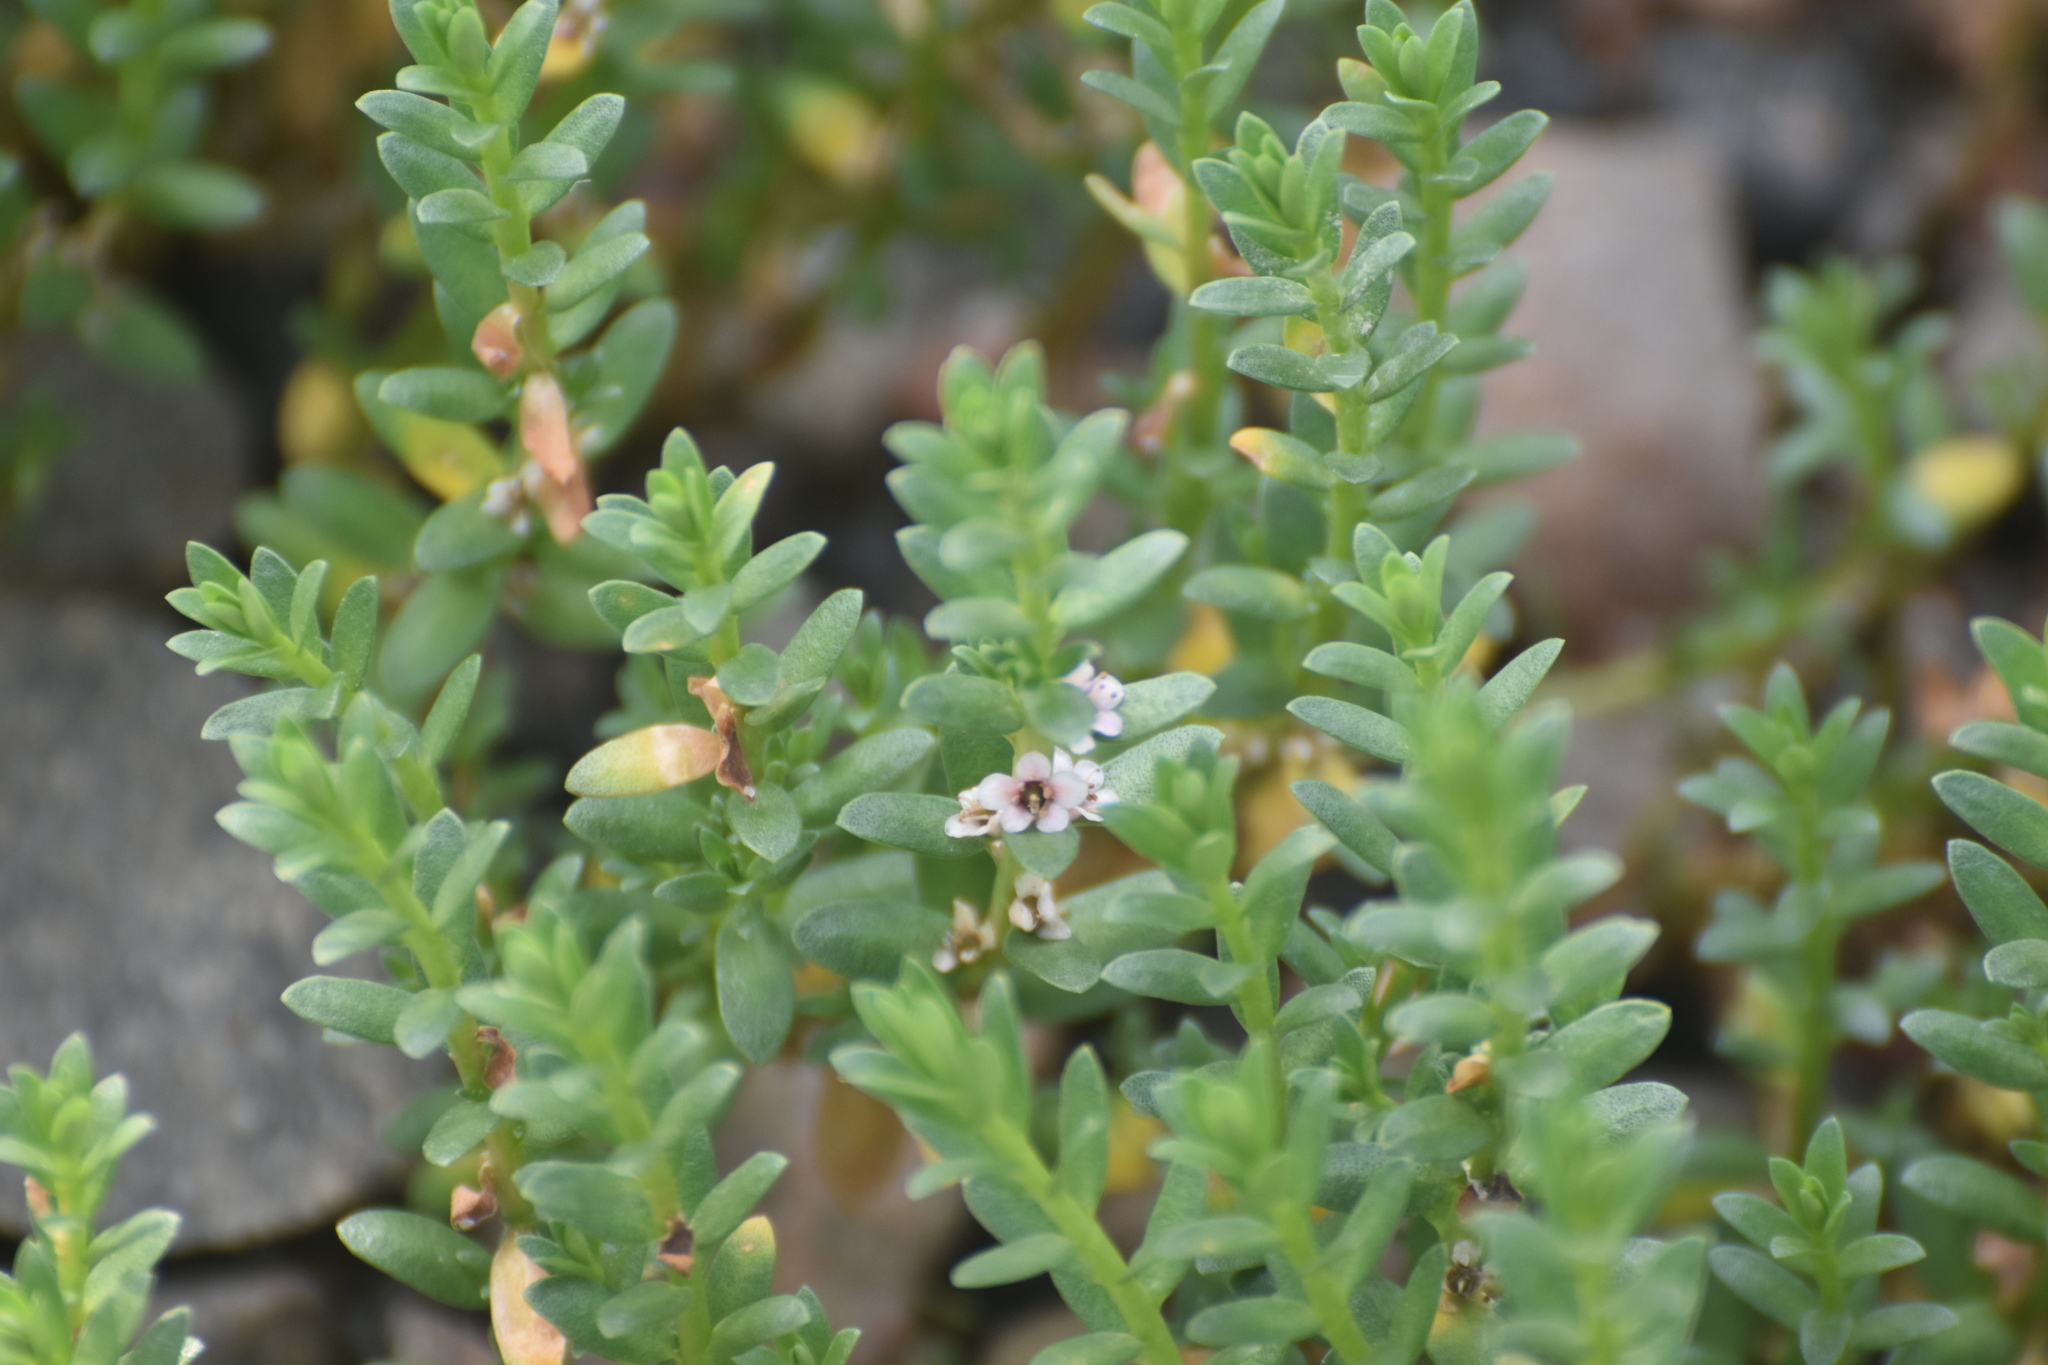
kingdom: Plantae
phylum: Tracheophyta
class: Magnoliopsida
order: Ericales
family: Primulaceae
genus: Lysimachia
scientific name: Lysimachia maritima
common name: Sea milkwort
